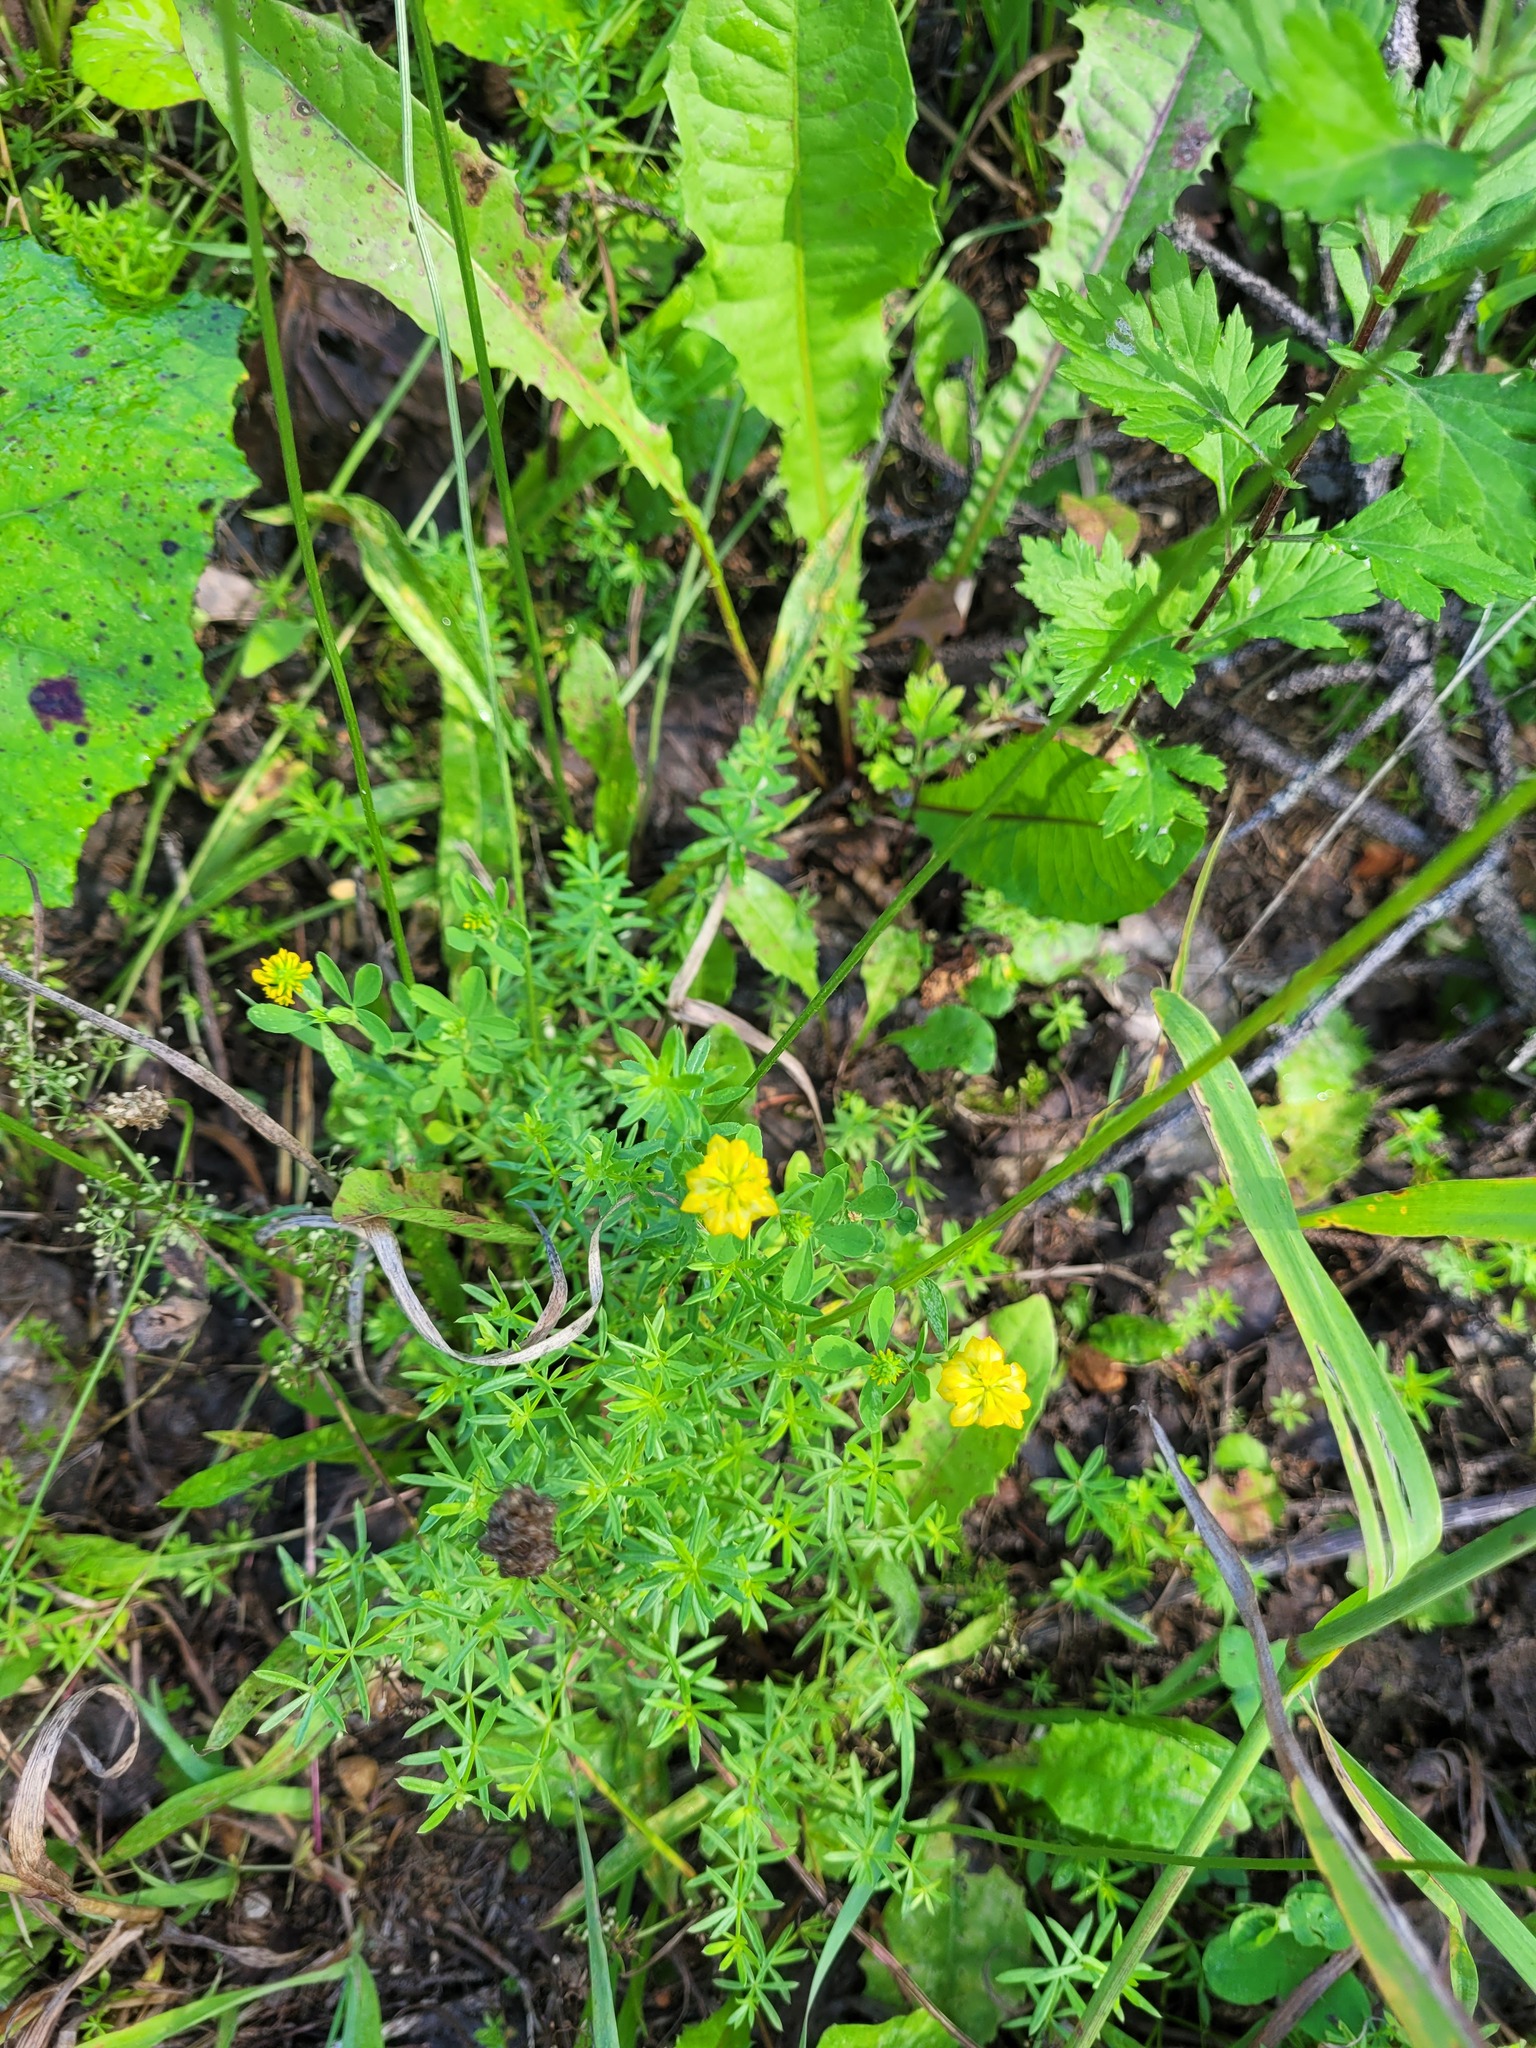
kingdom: Plantae
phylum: Tracheophyta
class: Magnoliopsida
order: Fabales
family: Fabaceae
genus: Trifolium
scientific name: Trifolium aureum
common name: Golden clover
